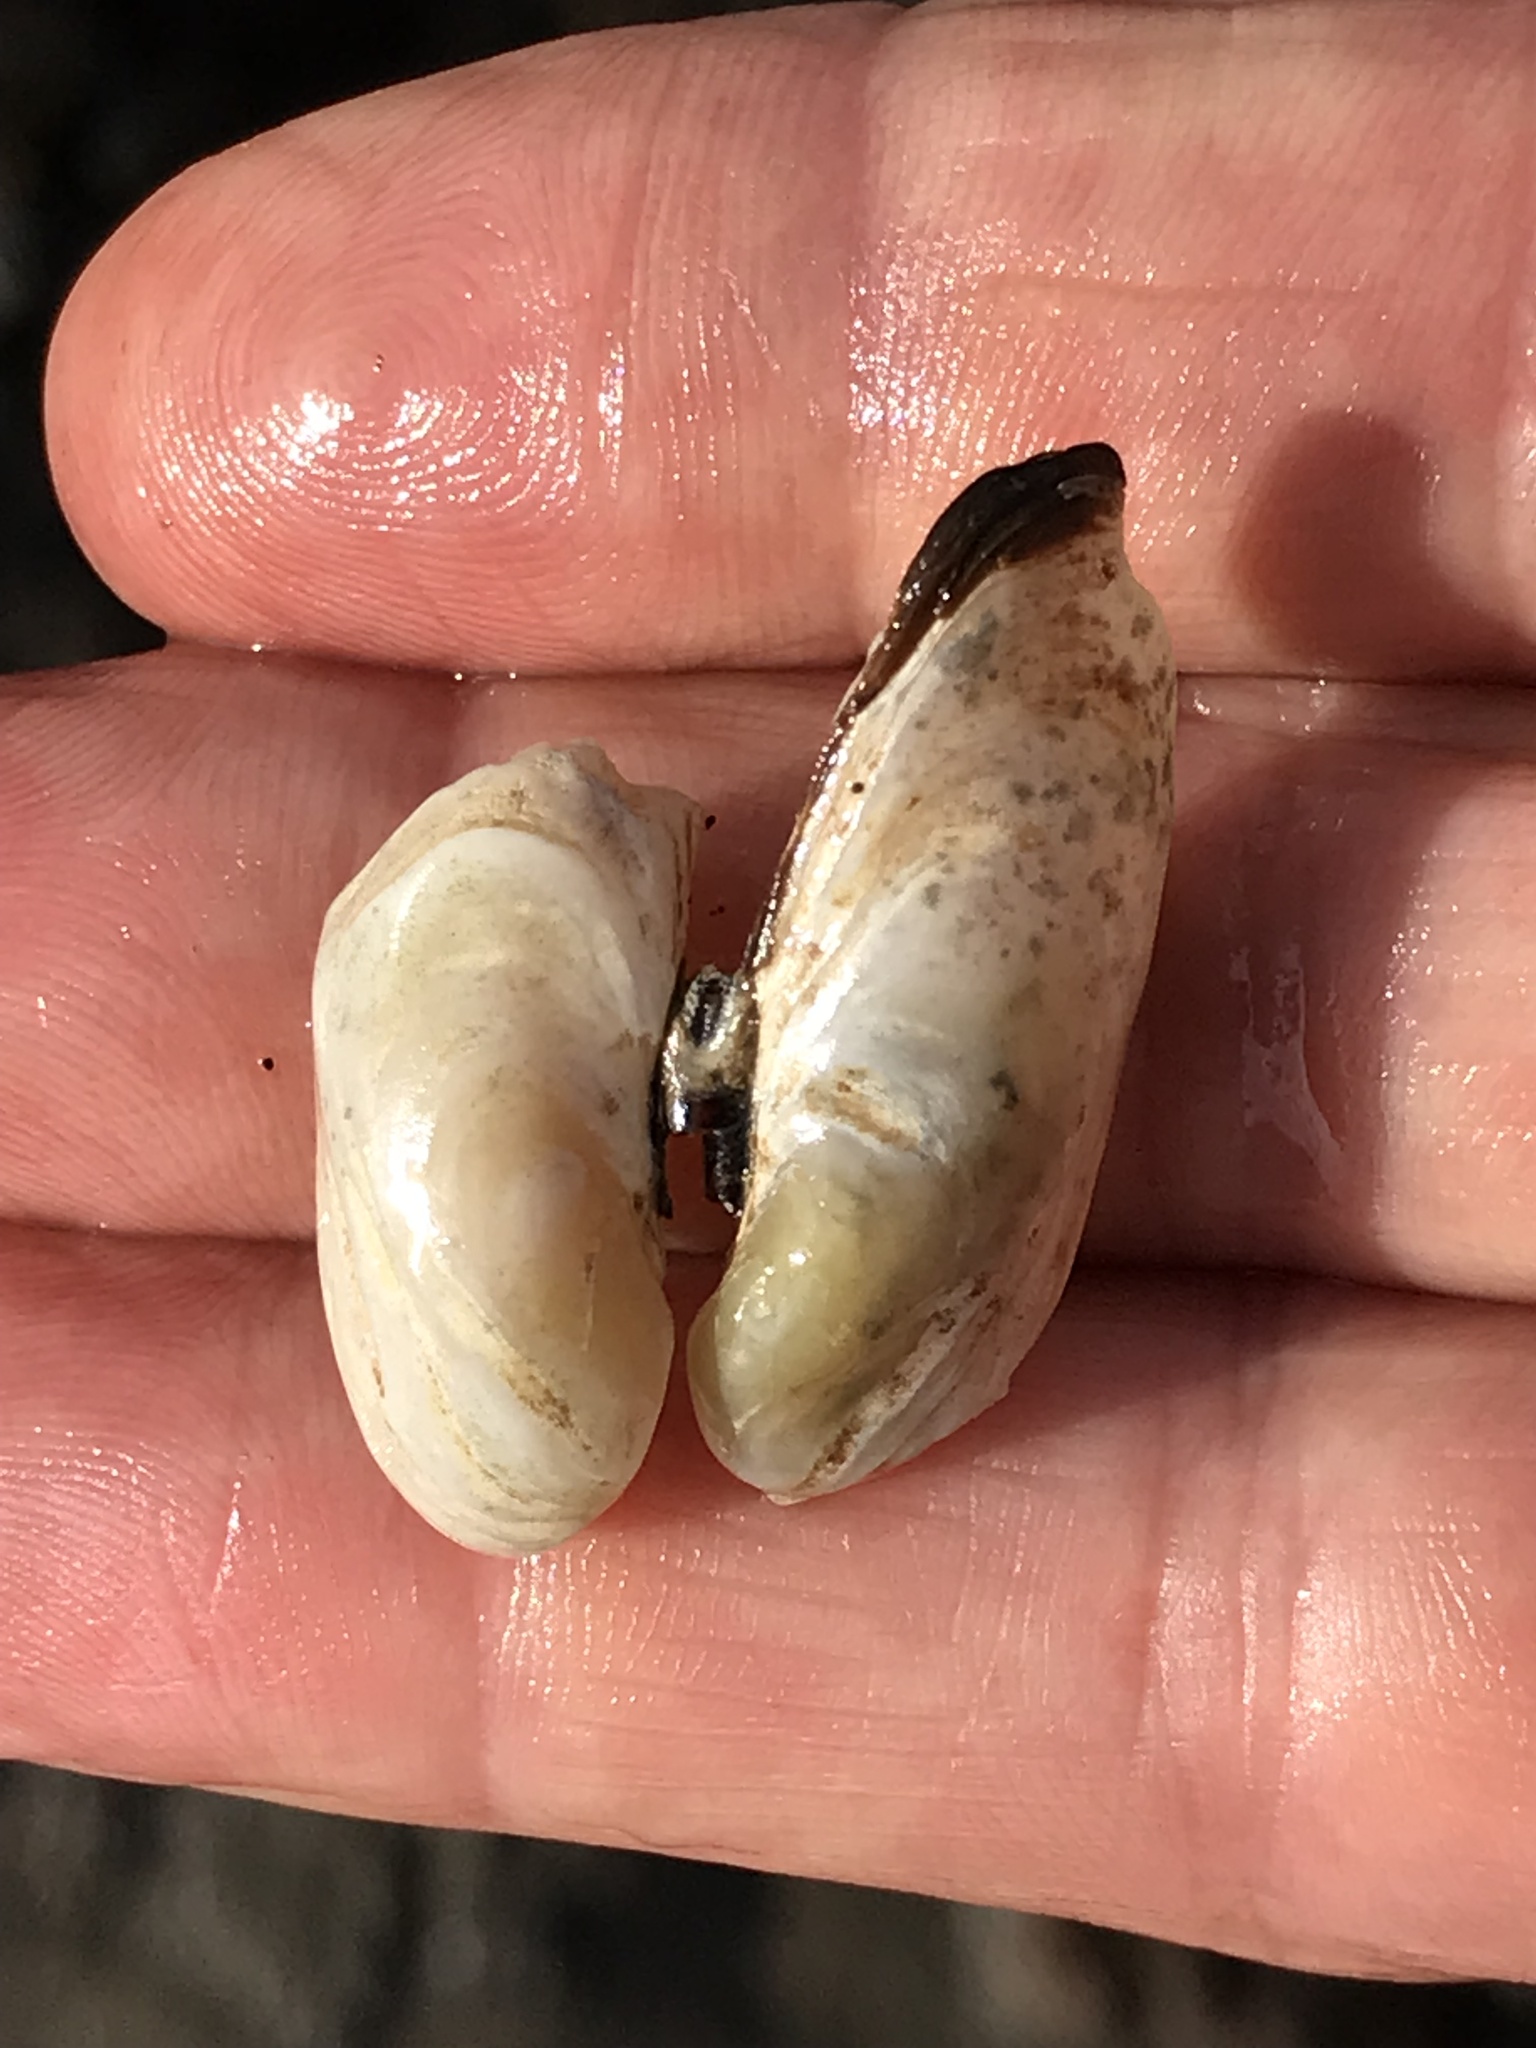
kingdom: Animalia
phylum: Mollusca
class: Bivalvia
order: Adapedonta
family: Hiatellidae
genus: Hiatella
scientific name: Hiatella arctica
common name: Arctic hiatella
